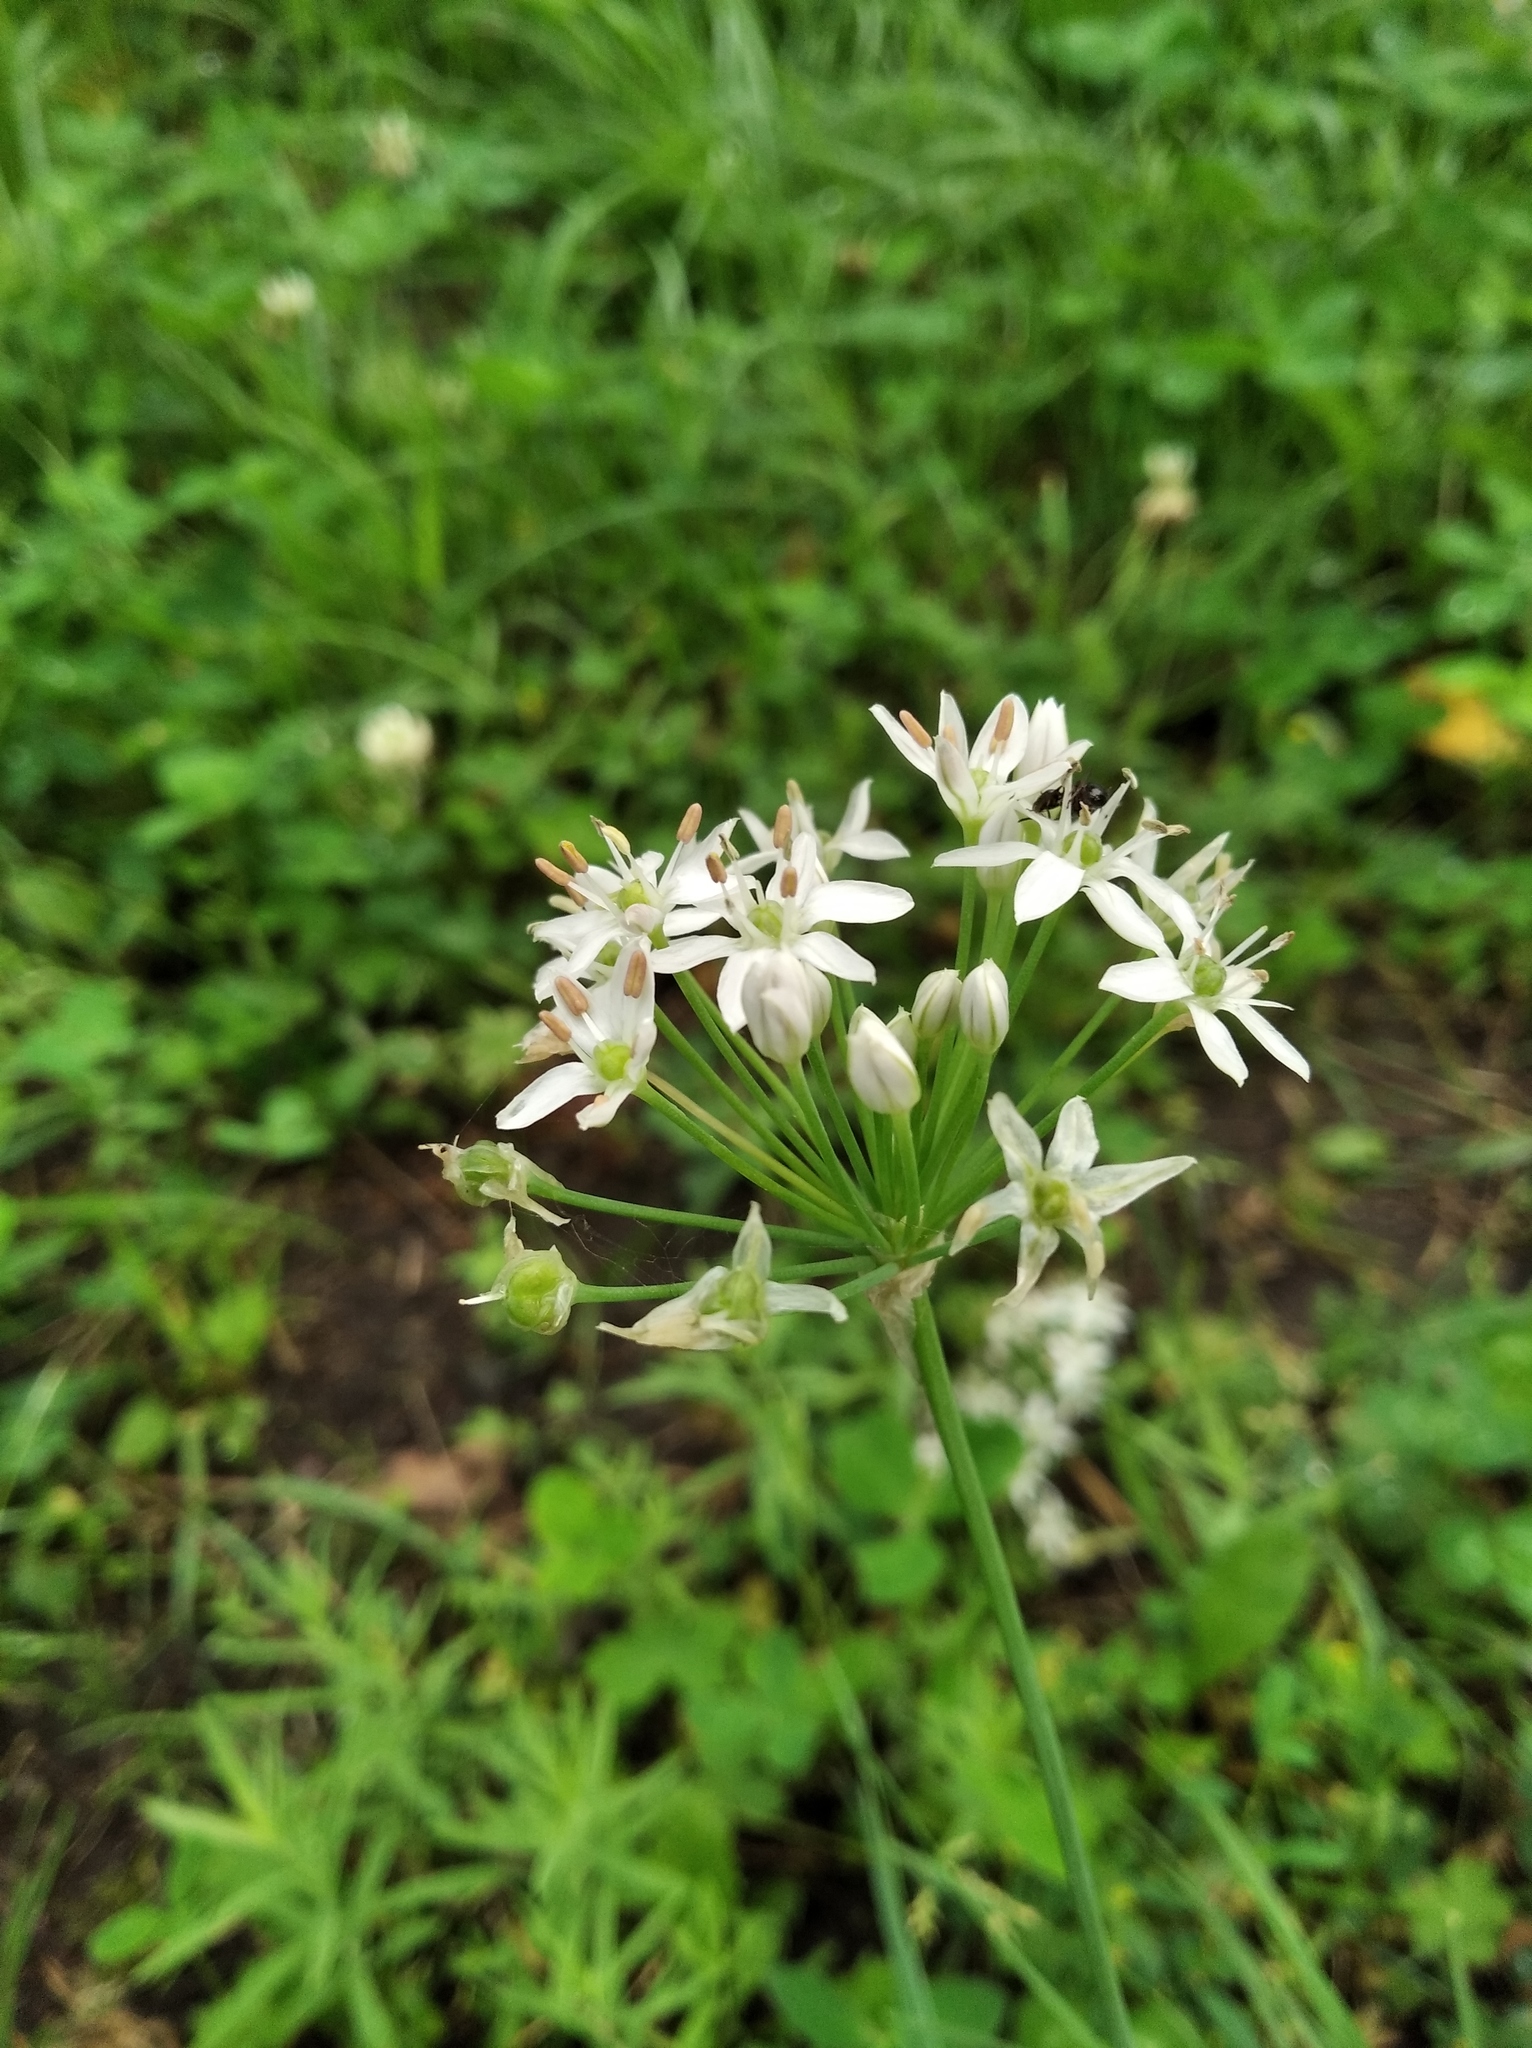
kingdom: Plantae
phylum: Tracheophyta
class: Liliopsida
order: Asparagales
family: Amaryllidaceae
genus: Allium
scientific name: Allium ramosum
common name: Fragrant garlic
